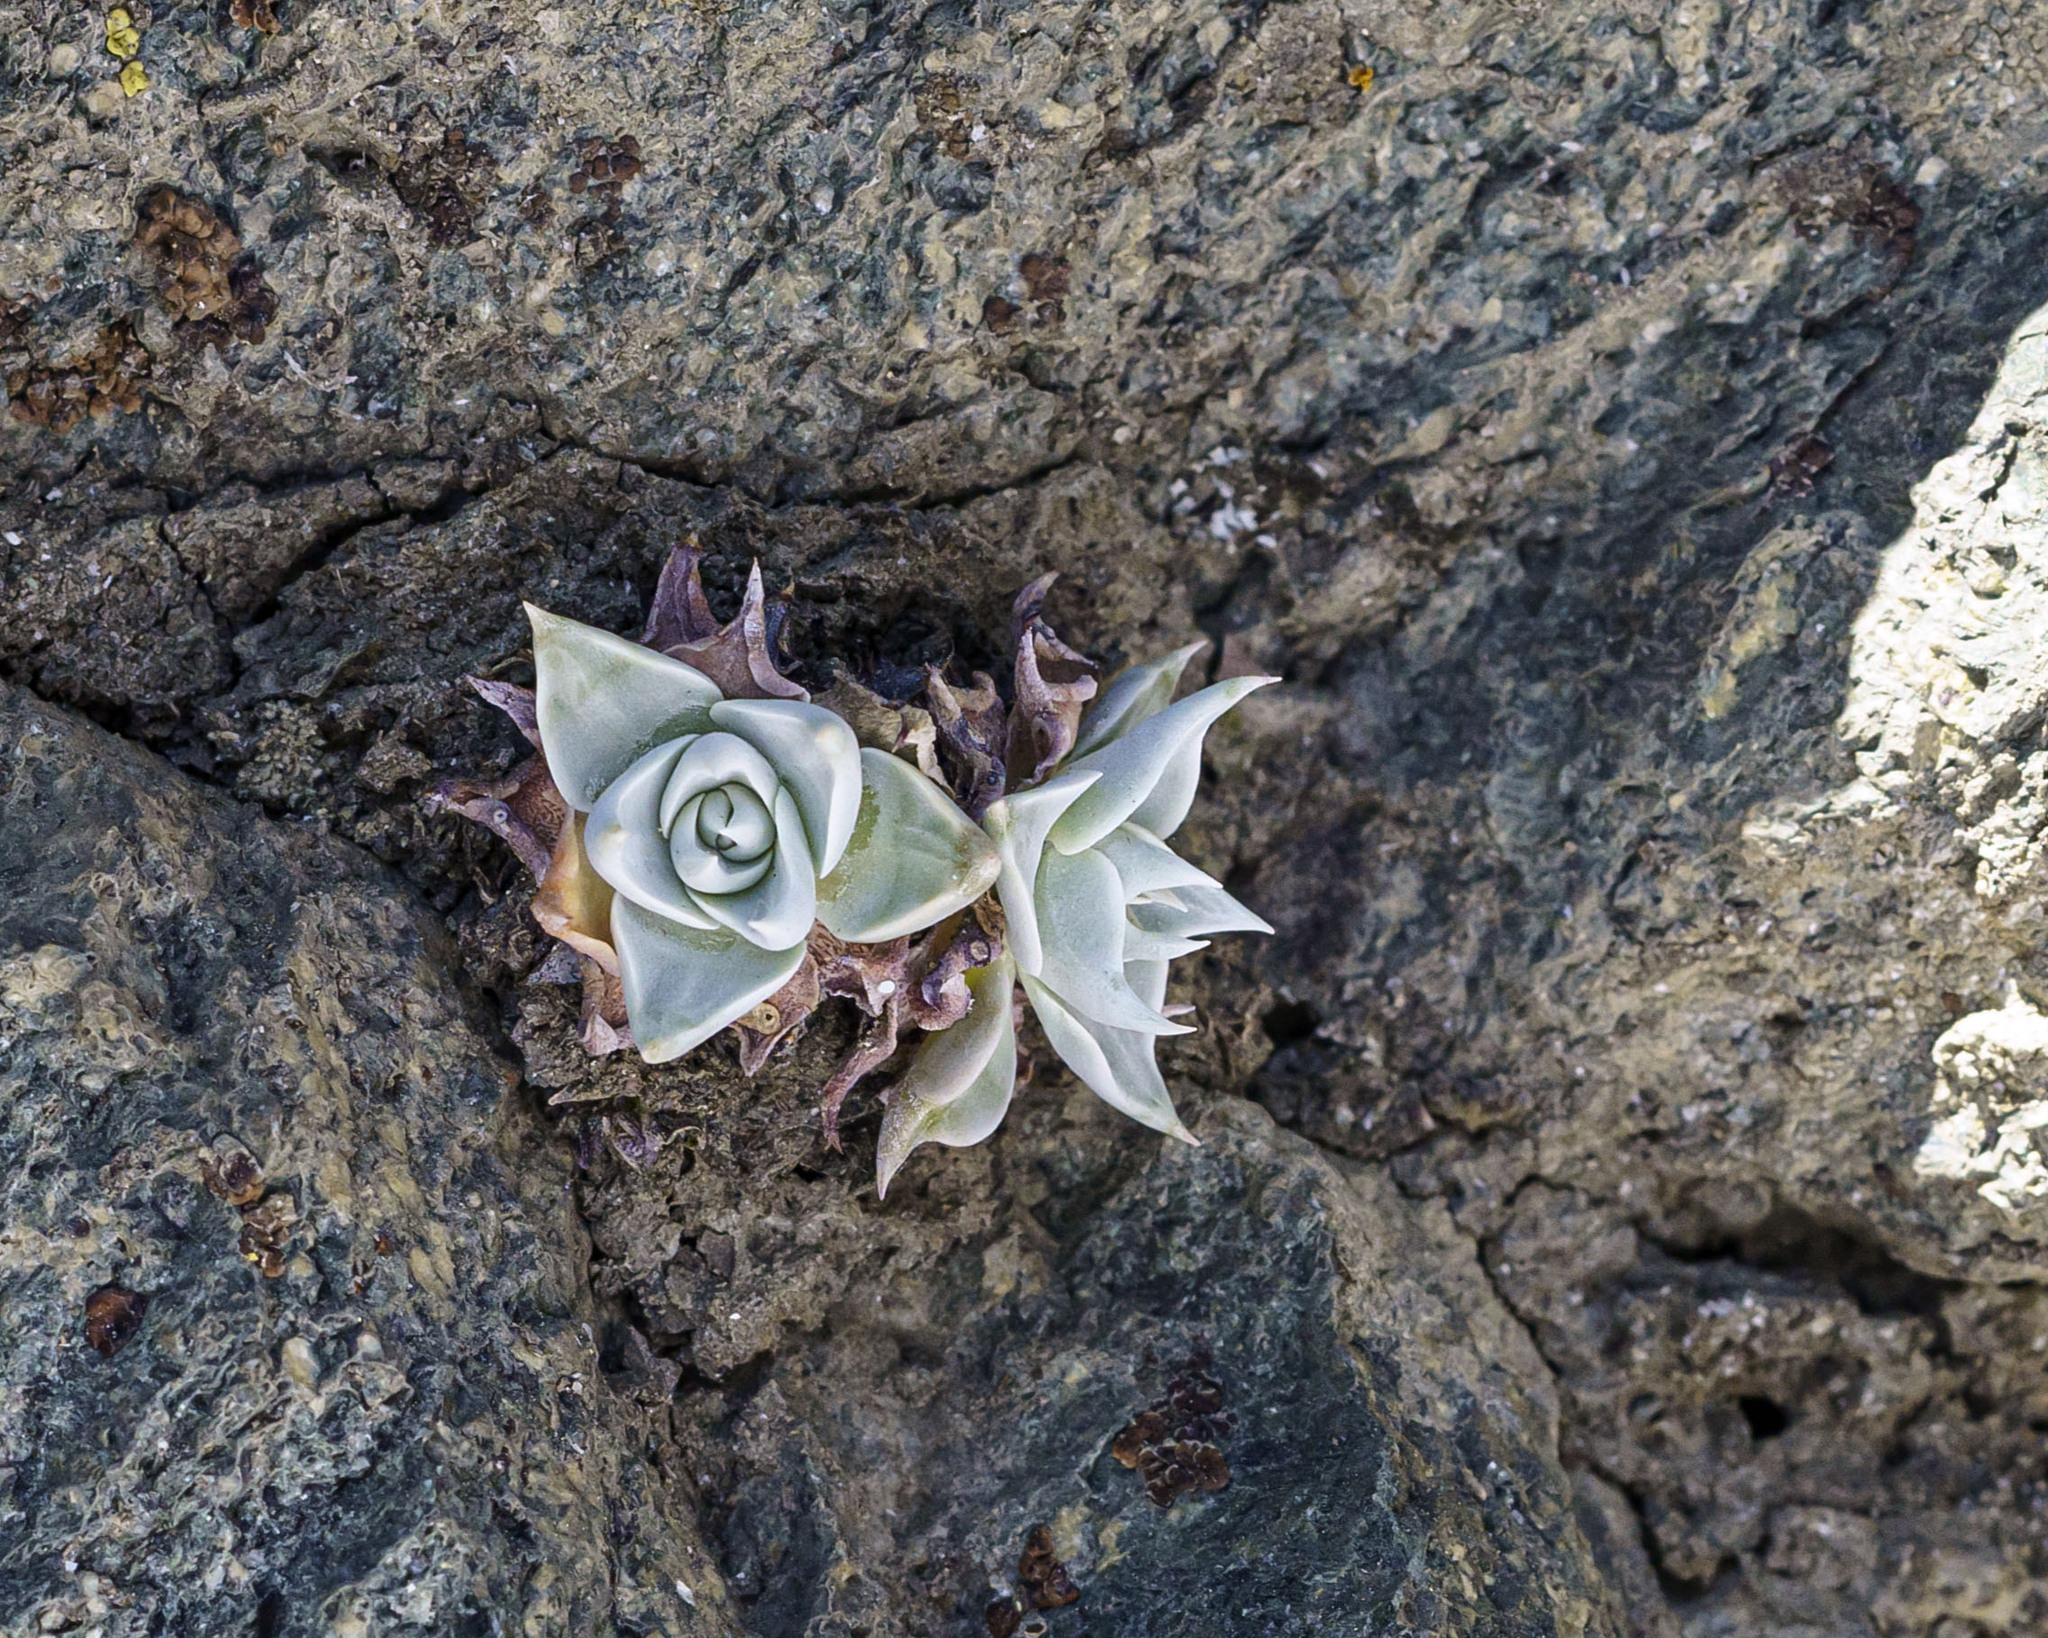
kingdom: Plantae
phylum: Tracheophyta
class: Magnoliopsida
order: Saxifragales
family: Crassulaceae
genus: Dudleya
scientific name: Dudleya cymosa
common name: Canyon dudleya
